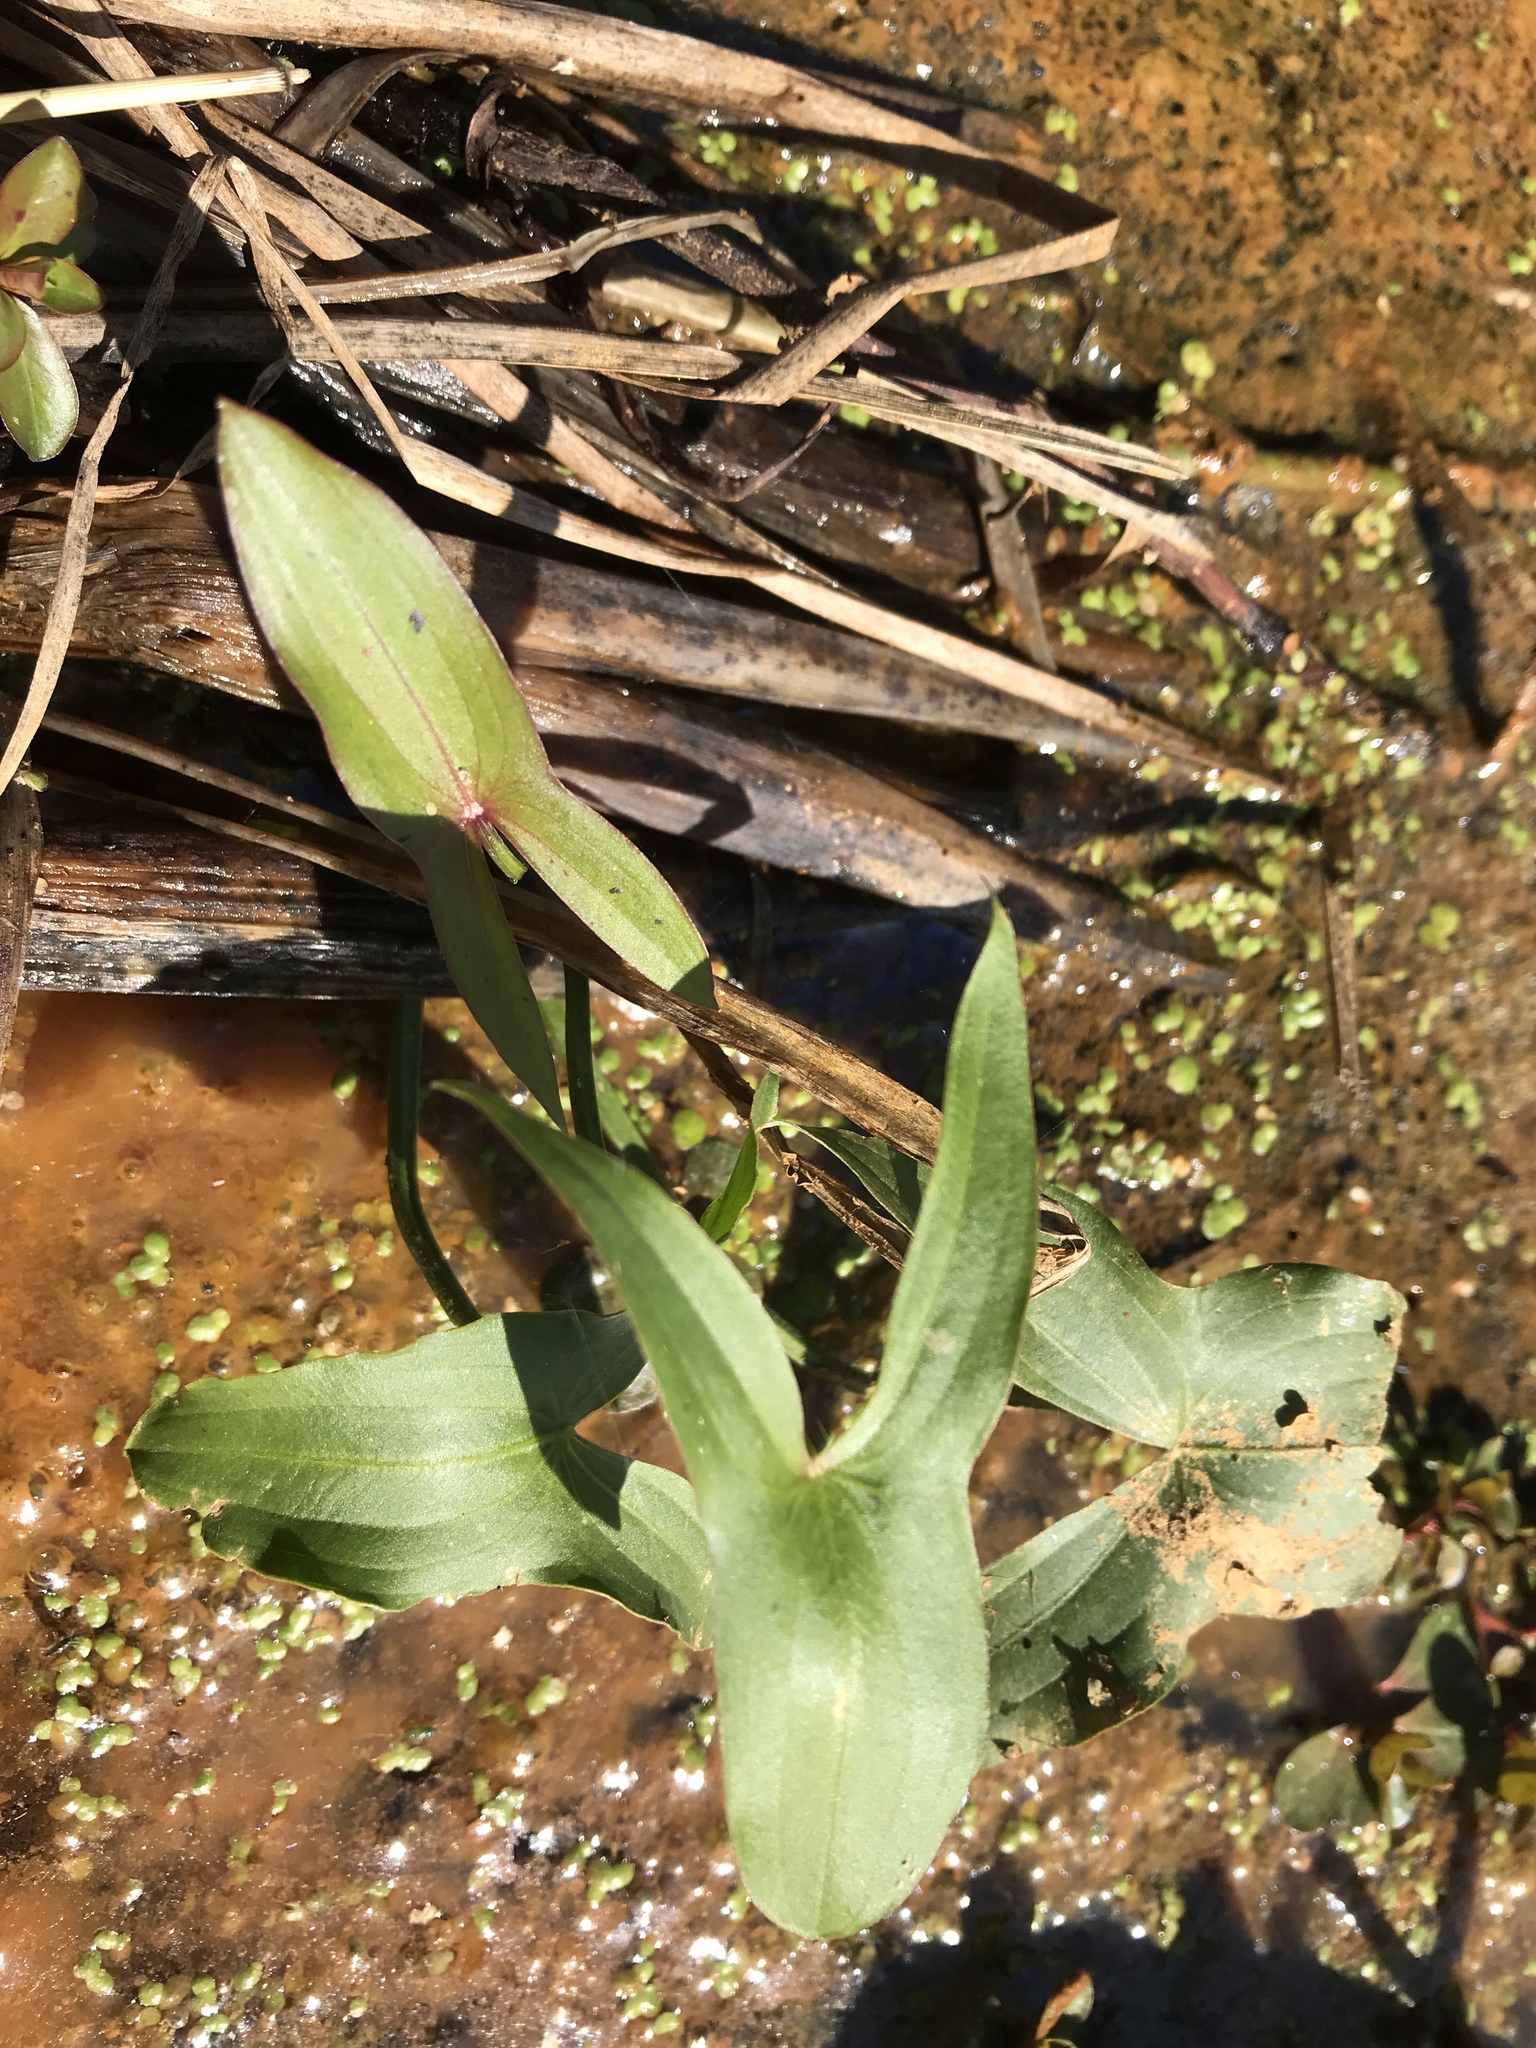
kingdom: Plantae
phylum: Tracheophyta
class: Liliopsida
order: Alismatales
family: Alismataceae
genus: Sagittaria
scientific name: Sagittaria
